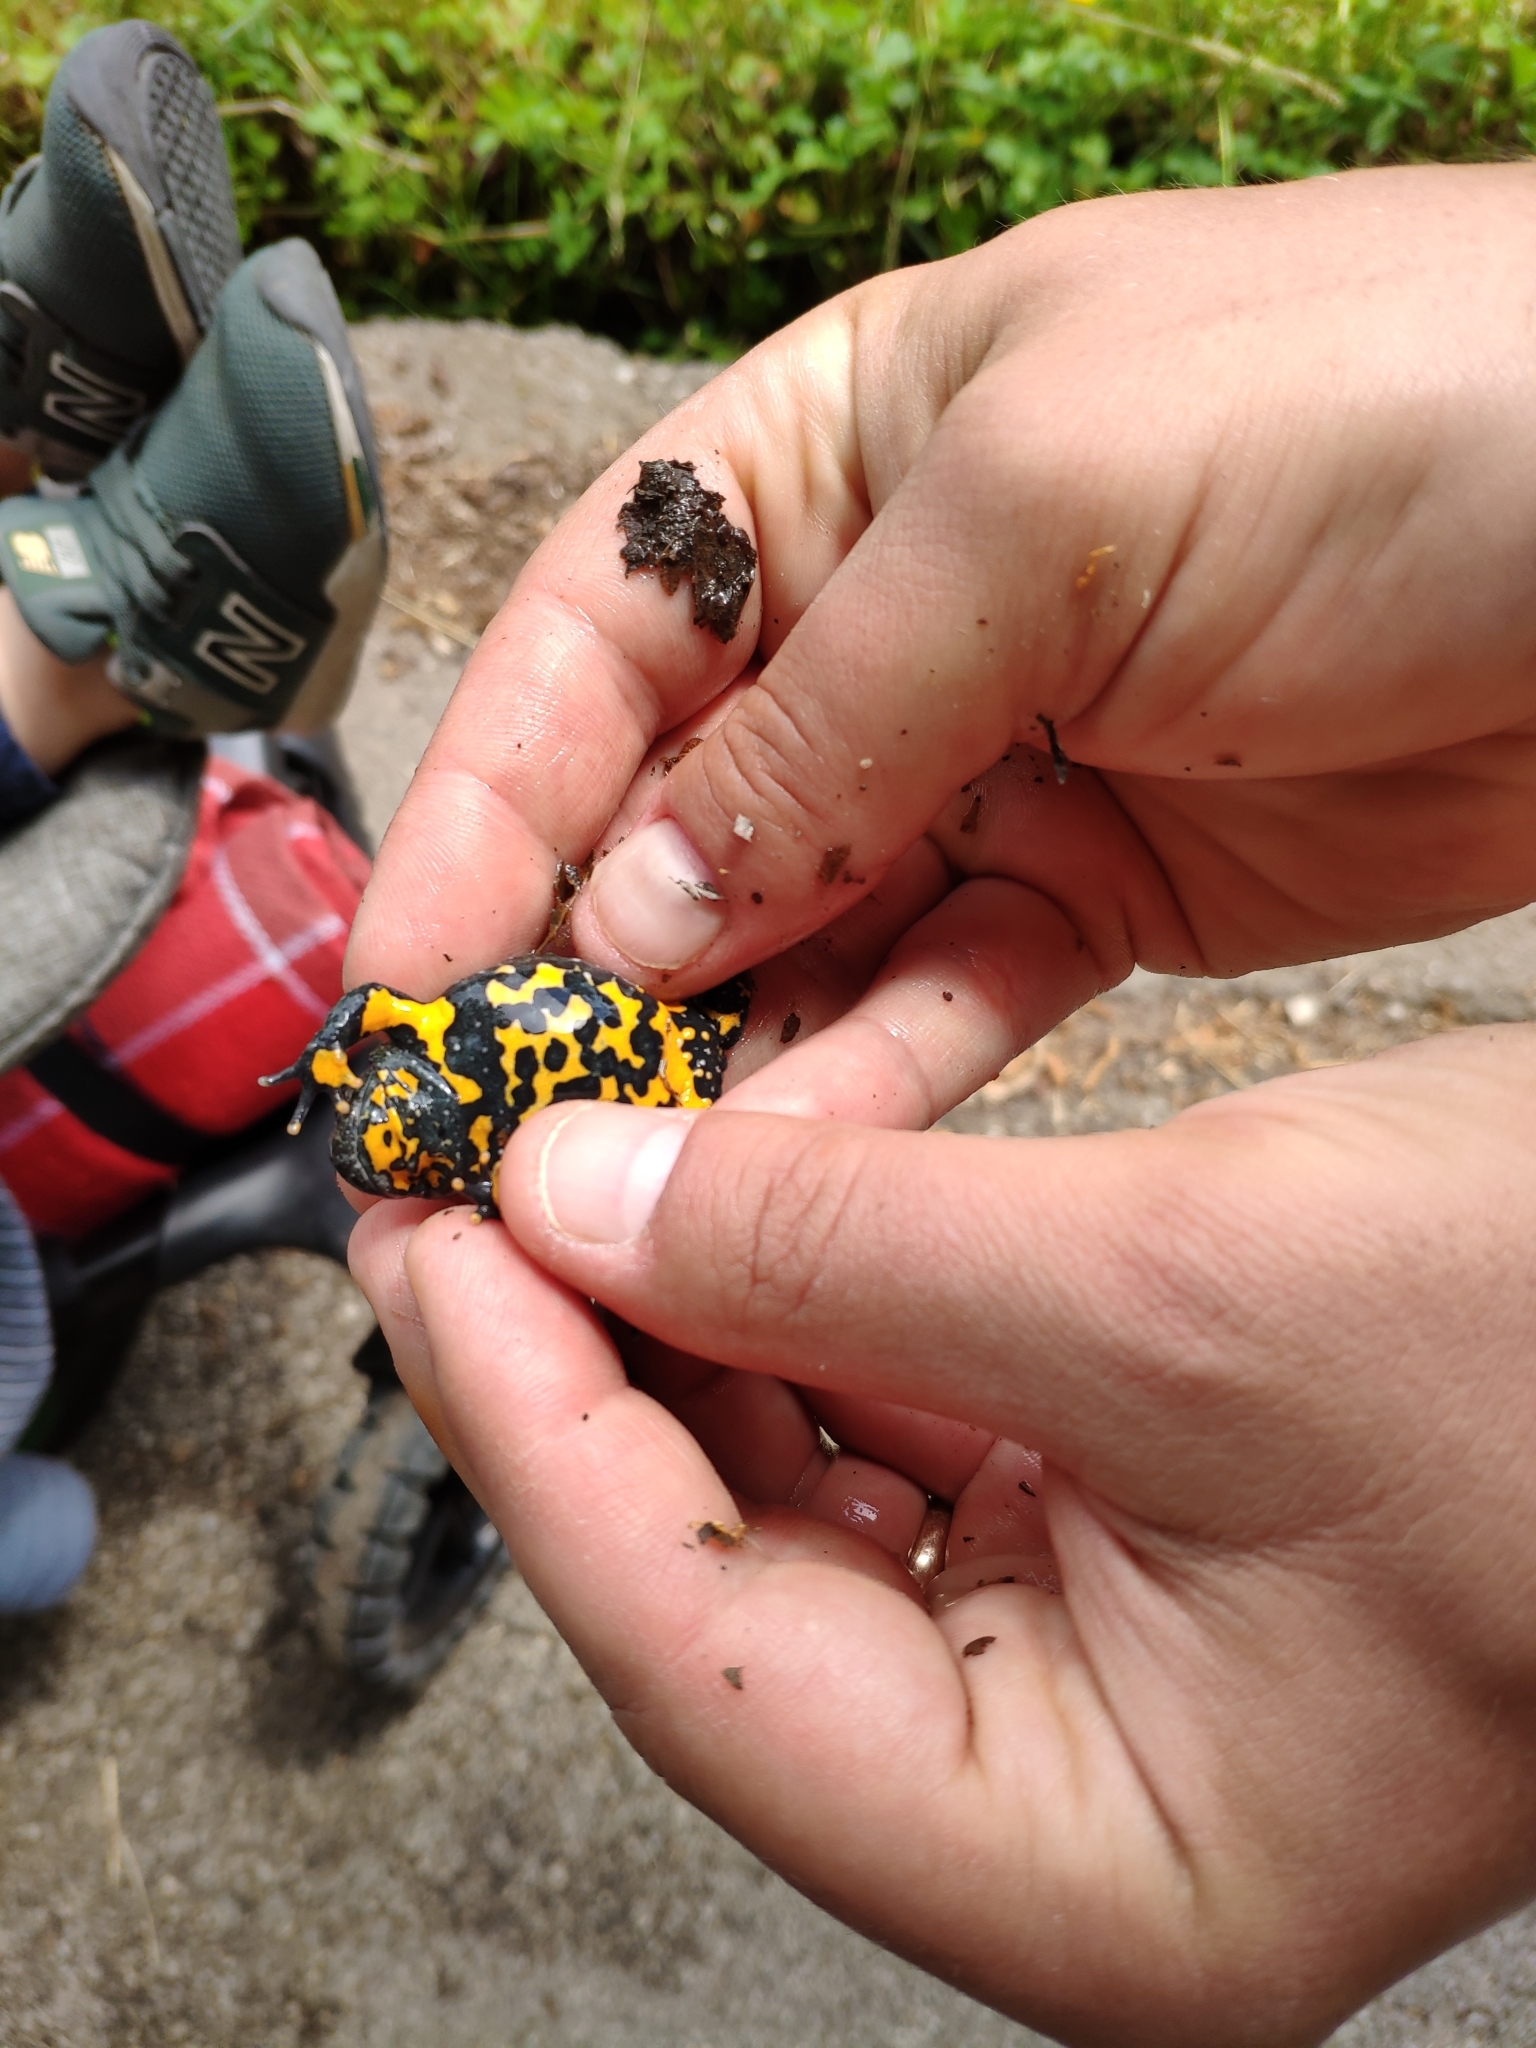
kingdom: Animalia
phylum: Chordata
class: Amphibia
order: Anura
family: Bombinatoridae
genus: Bombina
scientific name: Bombina variegata
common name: Yellow-bellied toad
